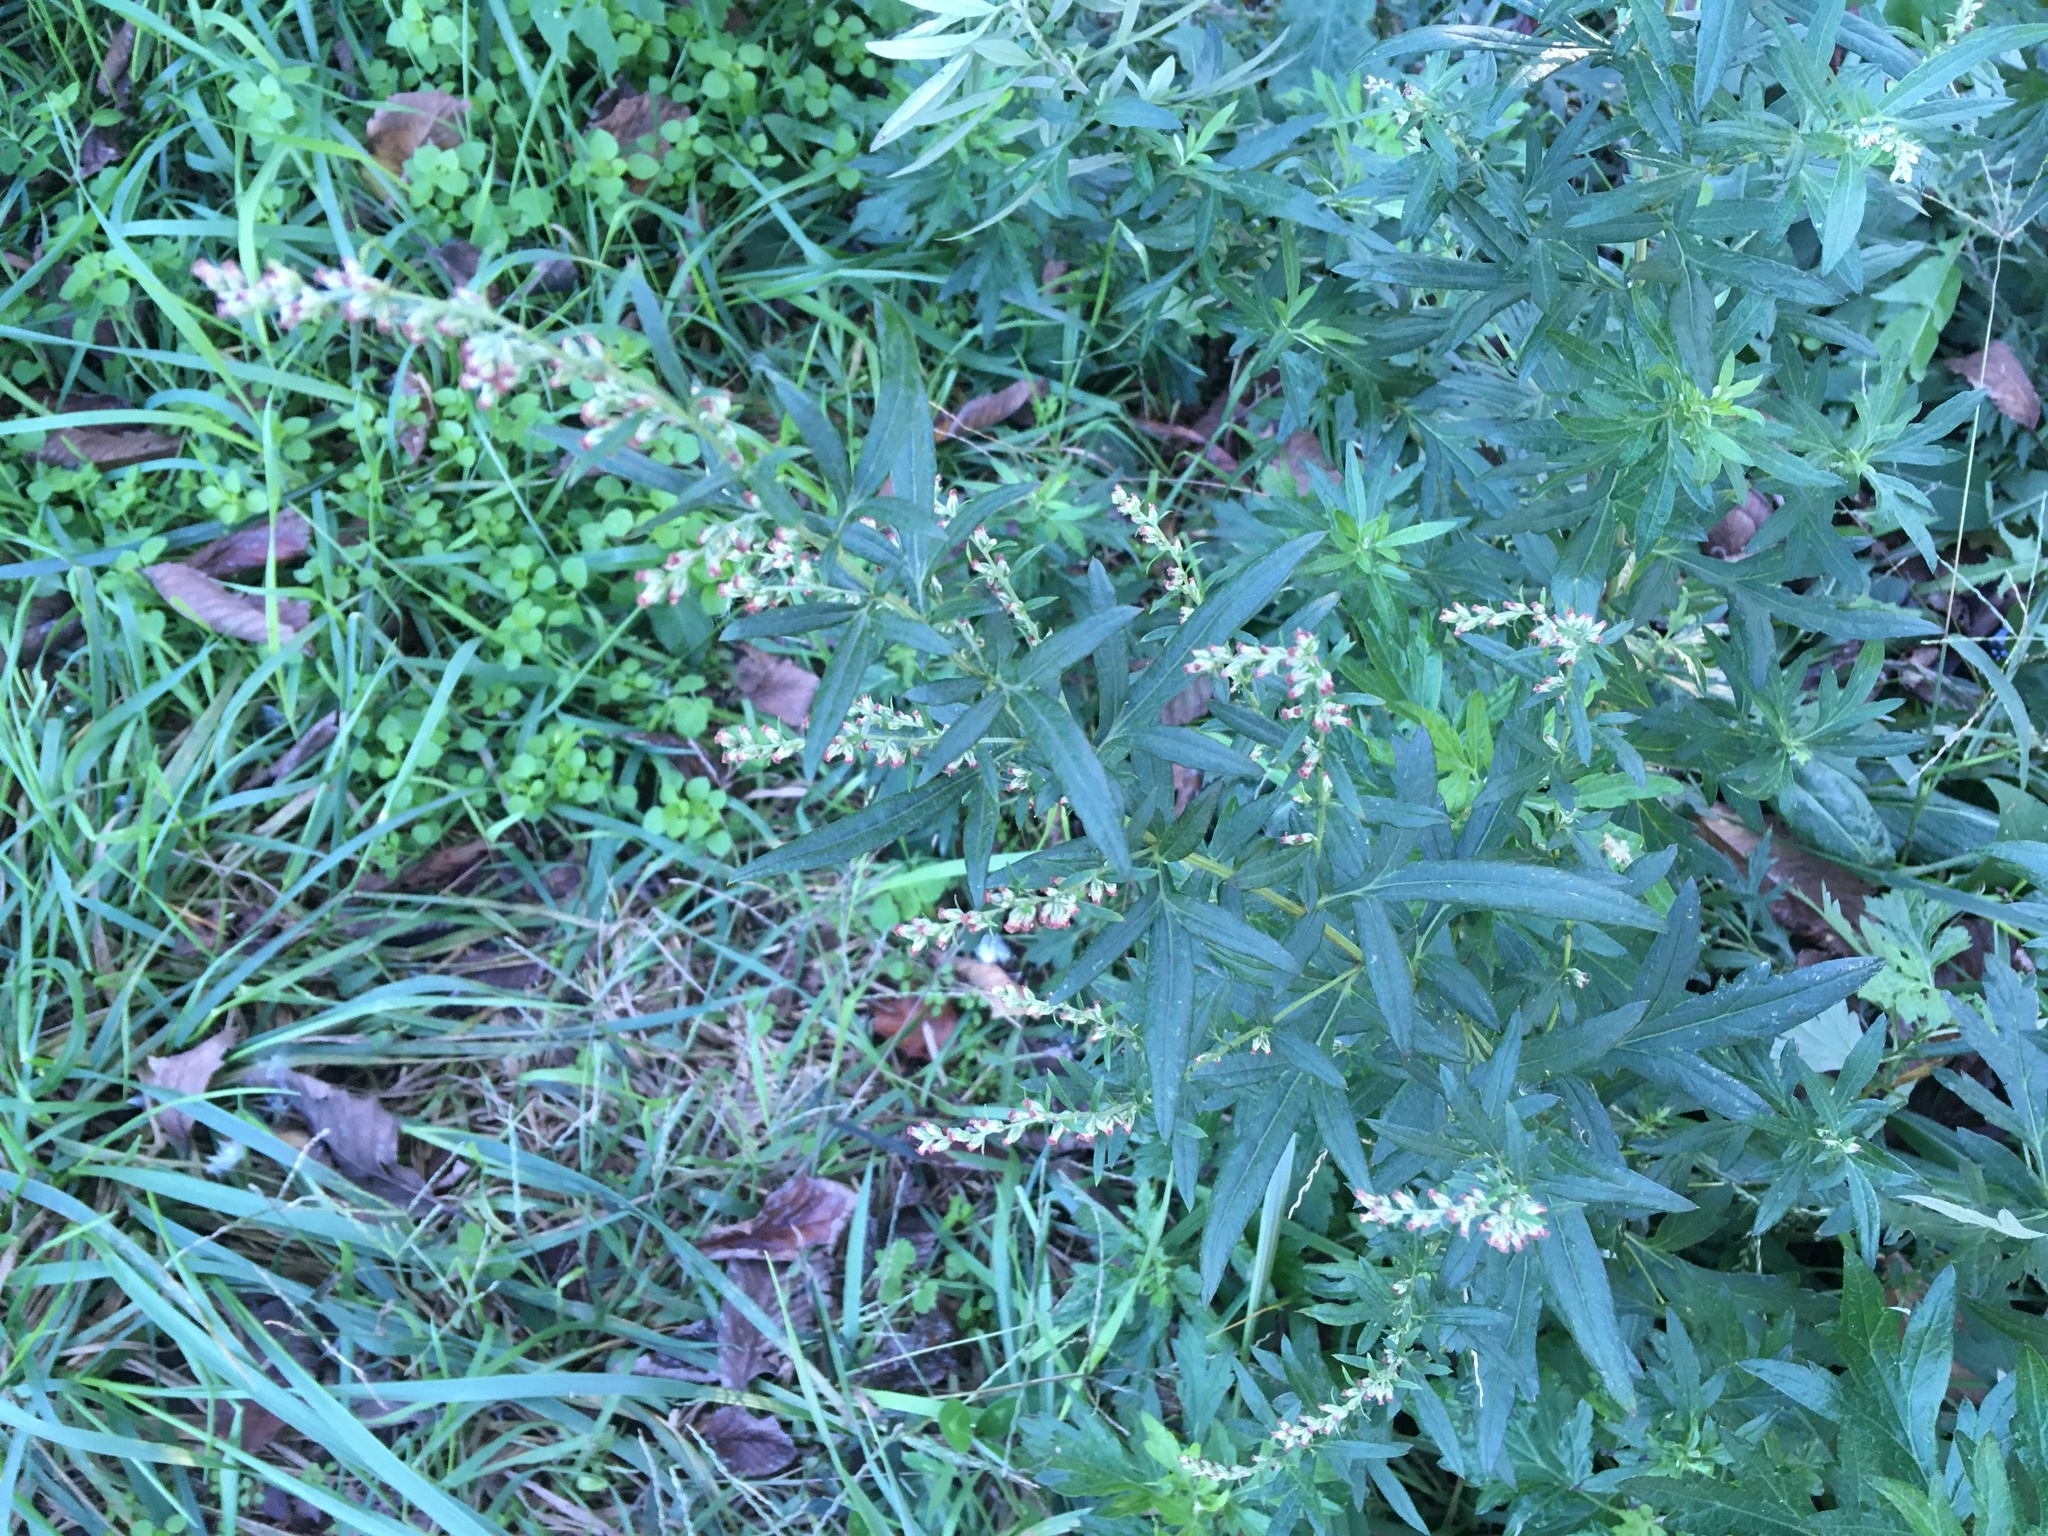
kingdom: Plantae
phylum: Tracheophyta
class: Magnoliopsida
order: Asterales
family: Asteraceae
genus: Artemisia
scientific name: Artemisia vulgaris
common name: Mugwort
